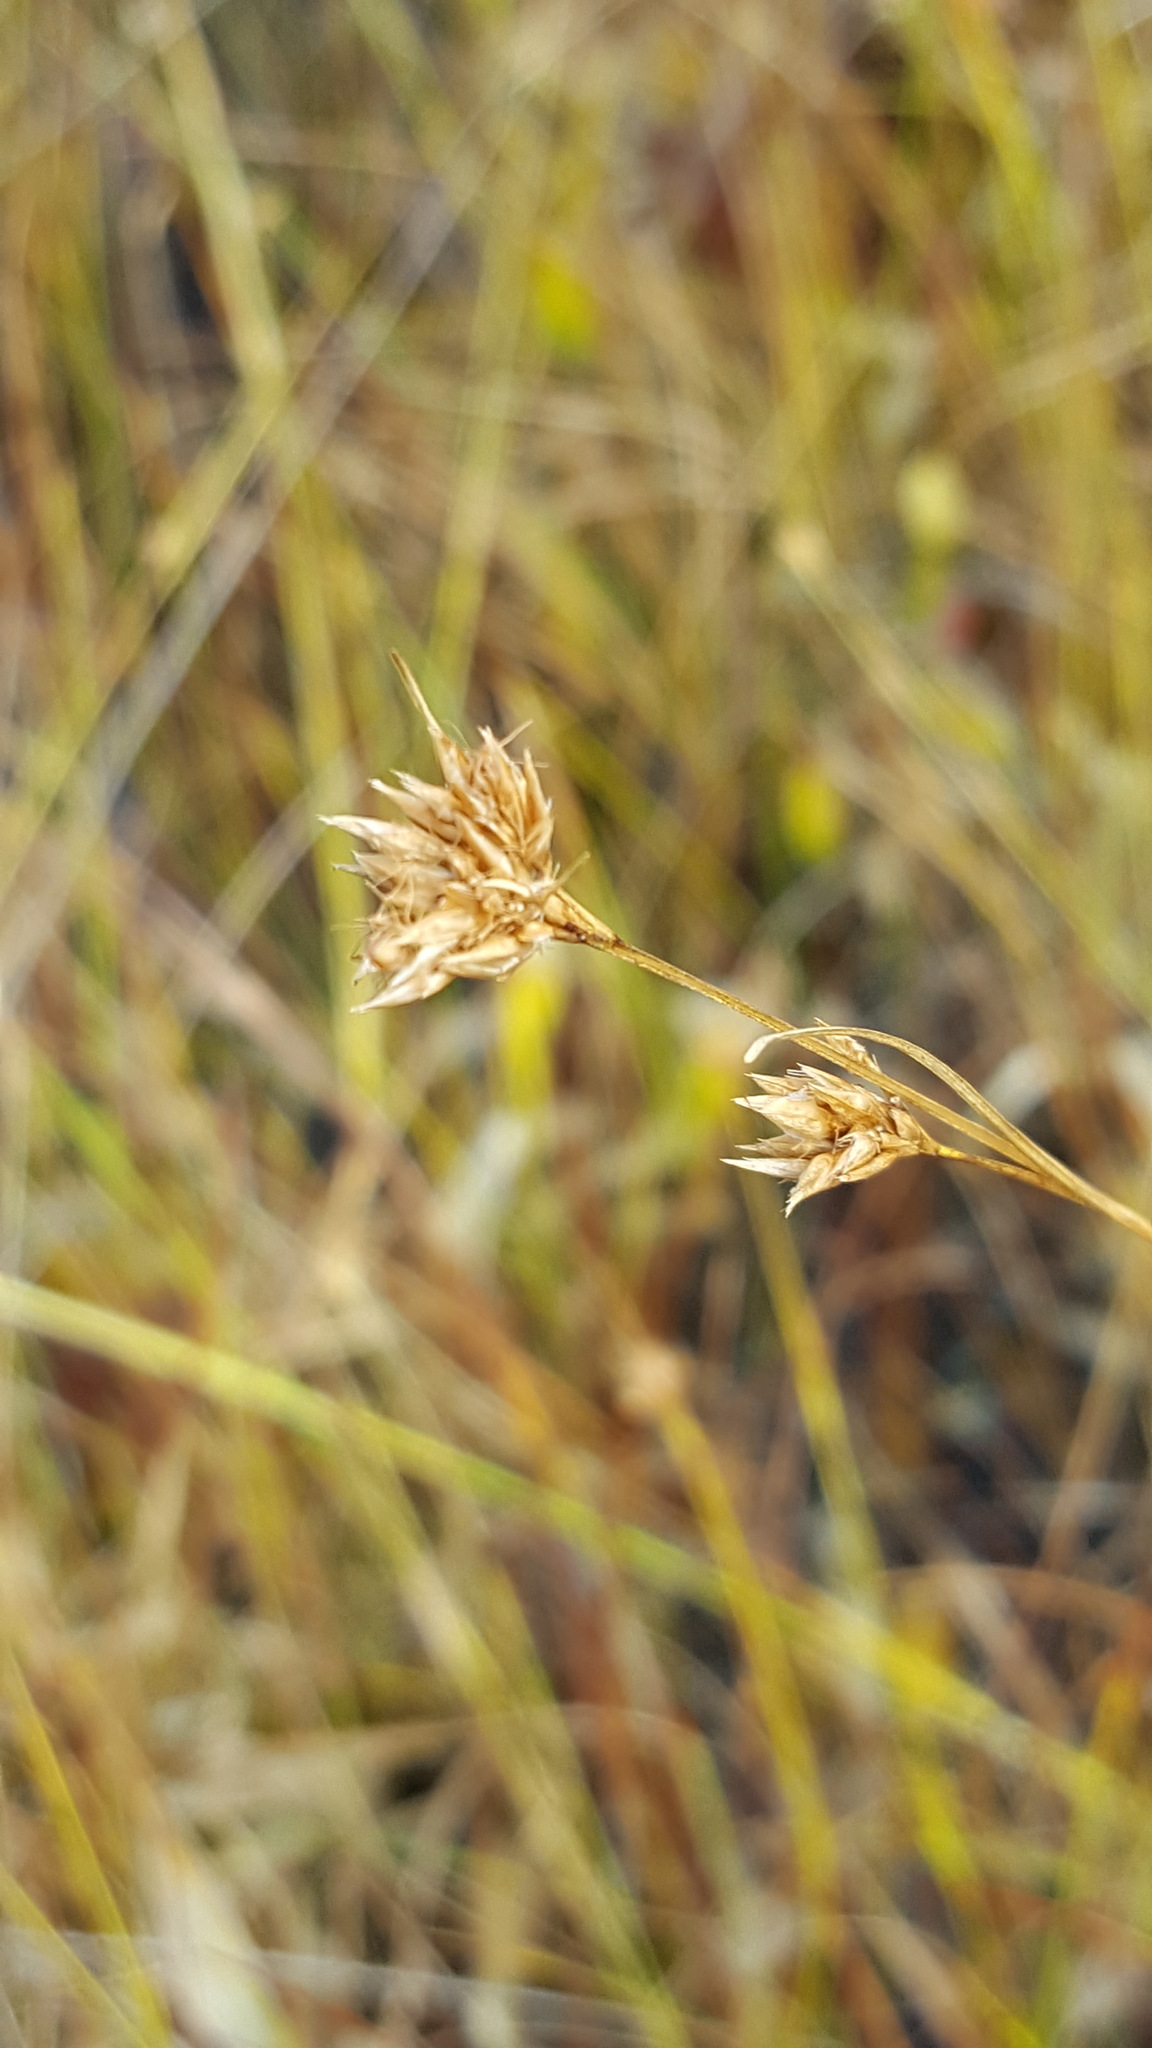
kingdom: Plantae
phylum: Tracheophyta
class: Liliopsida
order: Poales
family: Cyperaceae
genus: Rhynchospora
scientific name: Rhynchospora alba
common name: White beak-sedge
